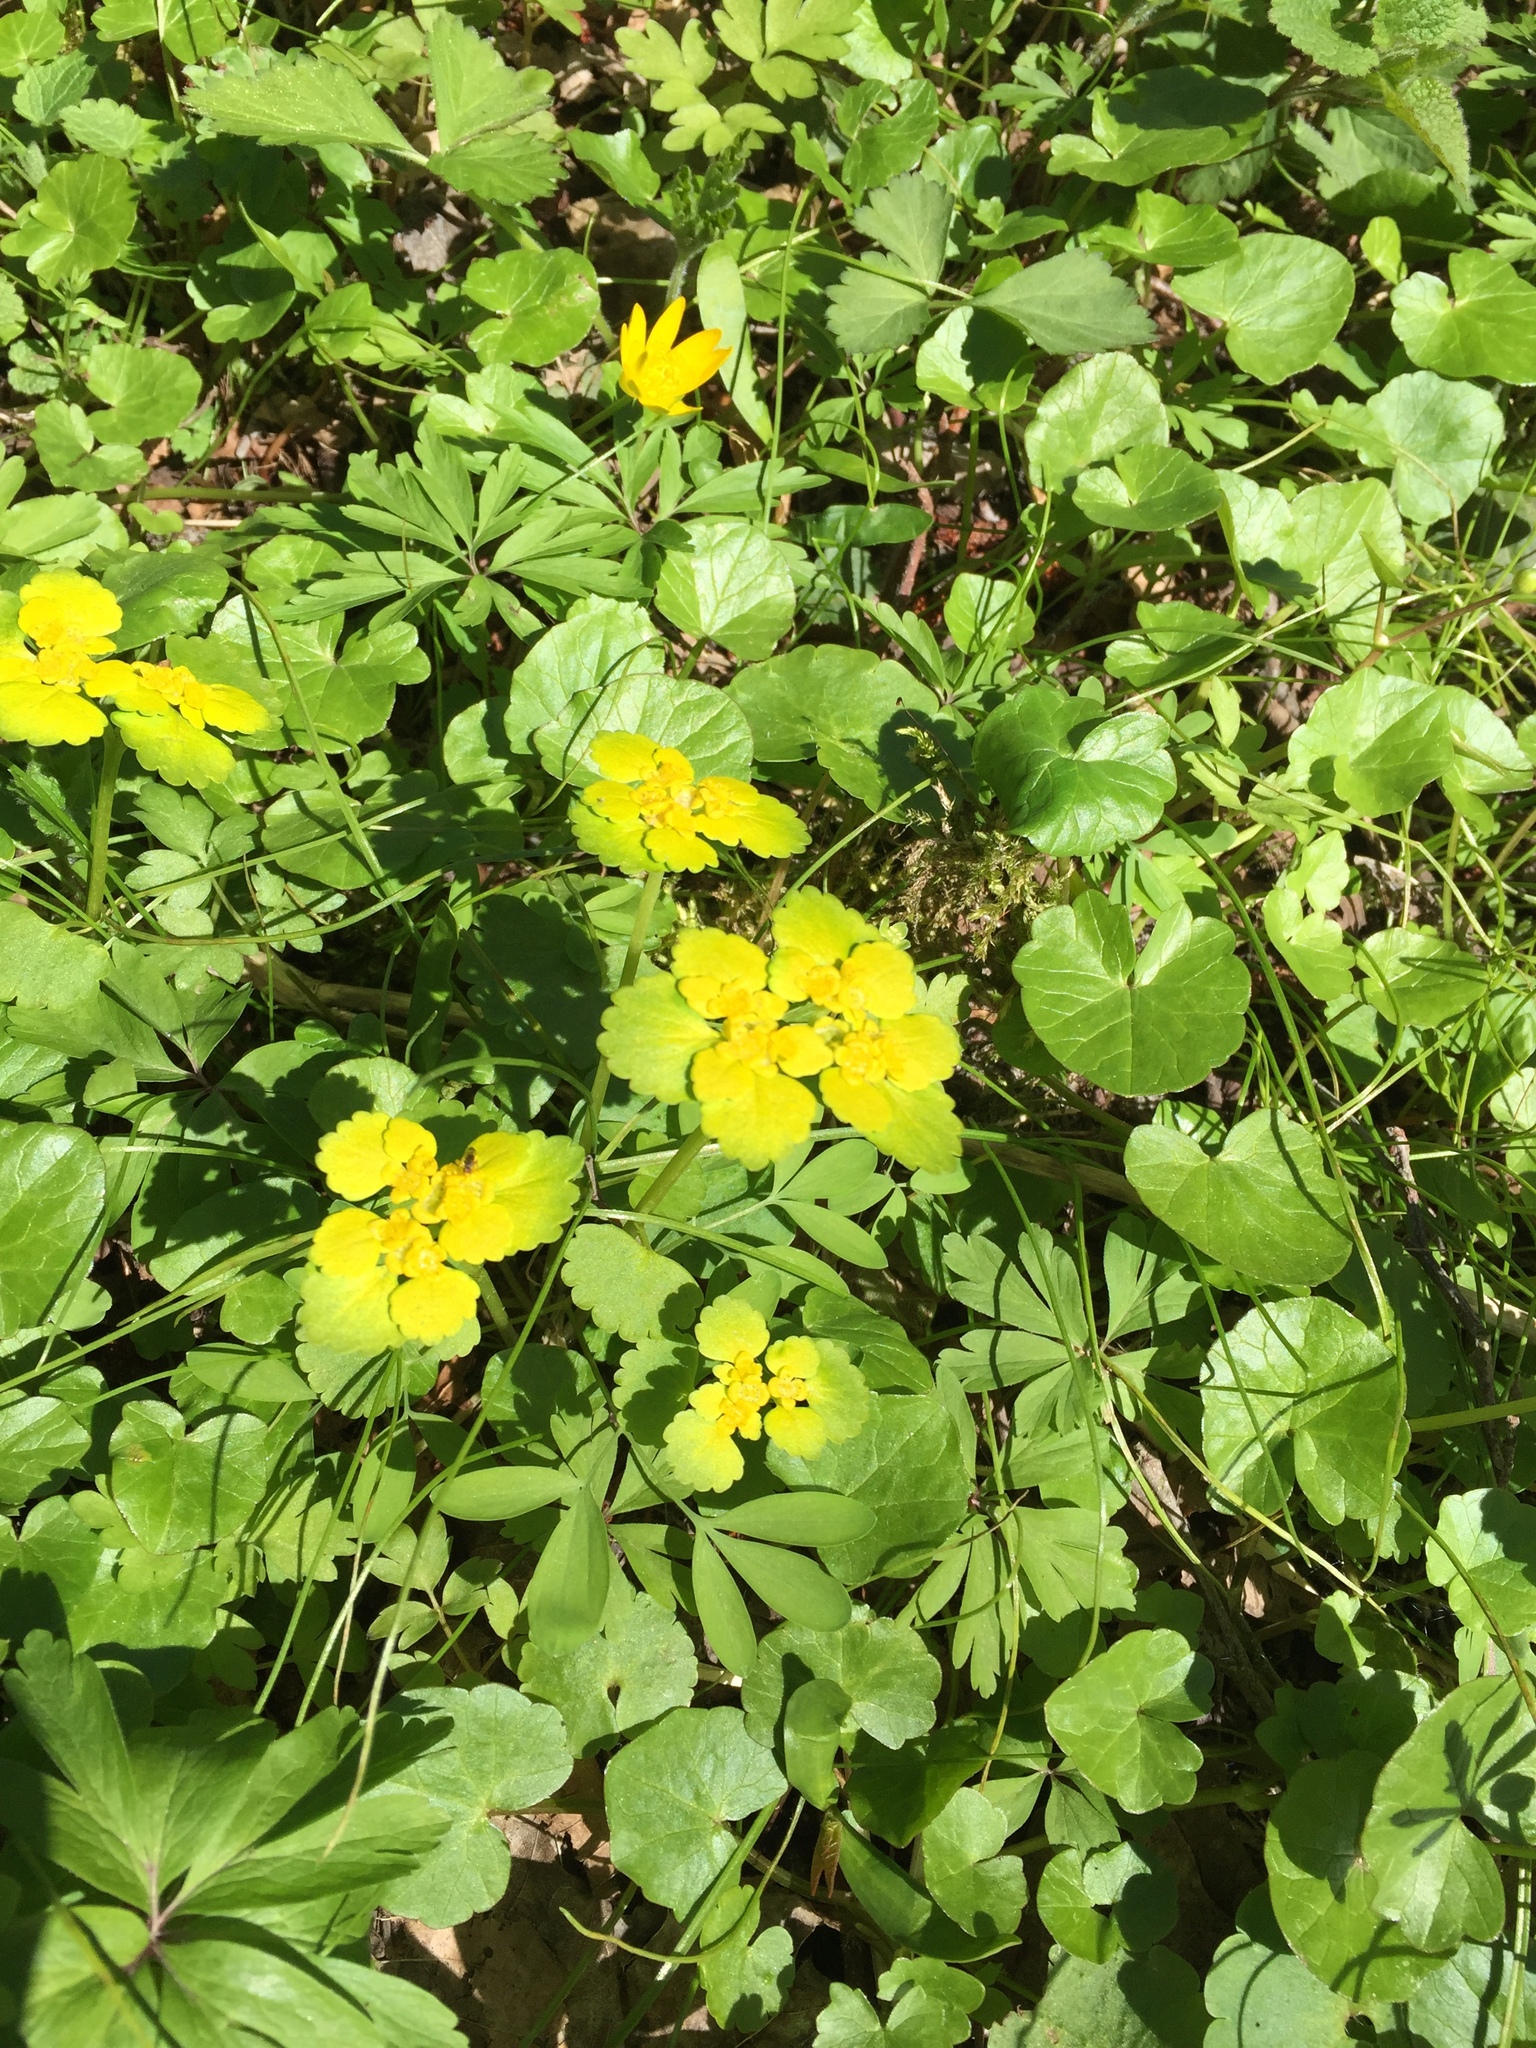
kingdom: Plantae
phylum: Tracheophyta
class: Magnoliopsida
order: Saxifragales
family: Saxifragaceae
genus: Chrysosplenium
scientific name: Chrysosplenium alternifolium
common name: Alternate-leaved golden-saxifrage
